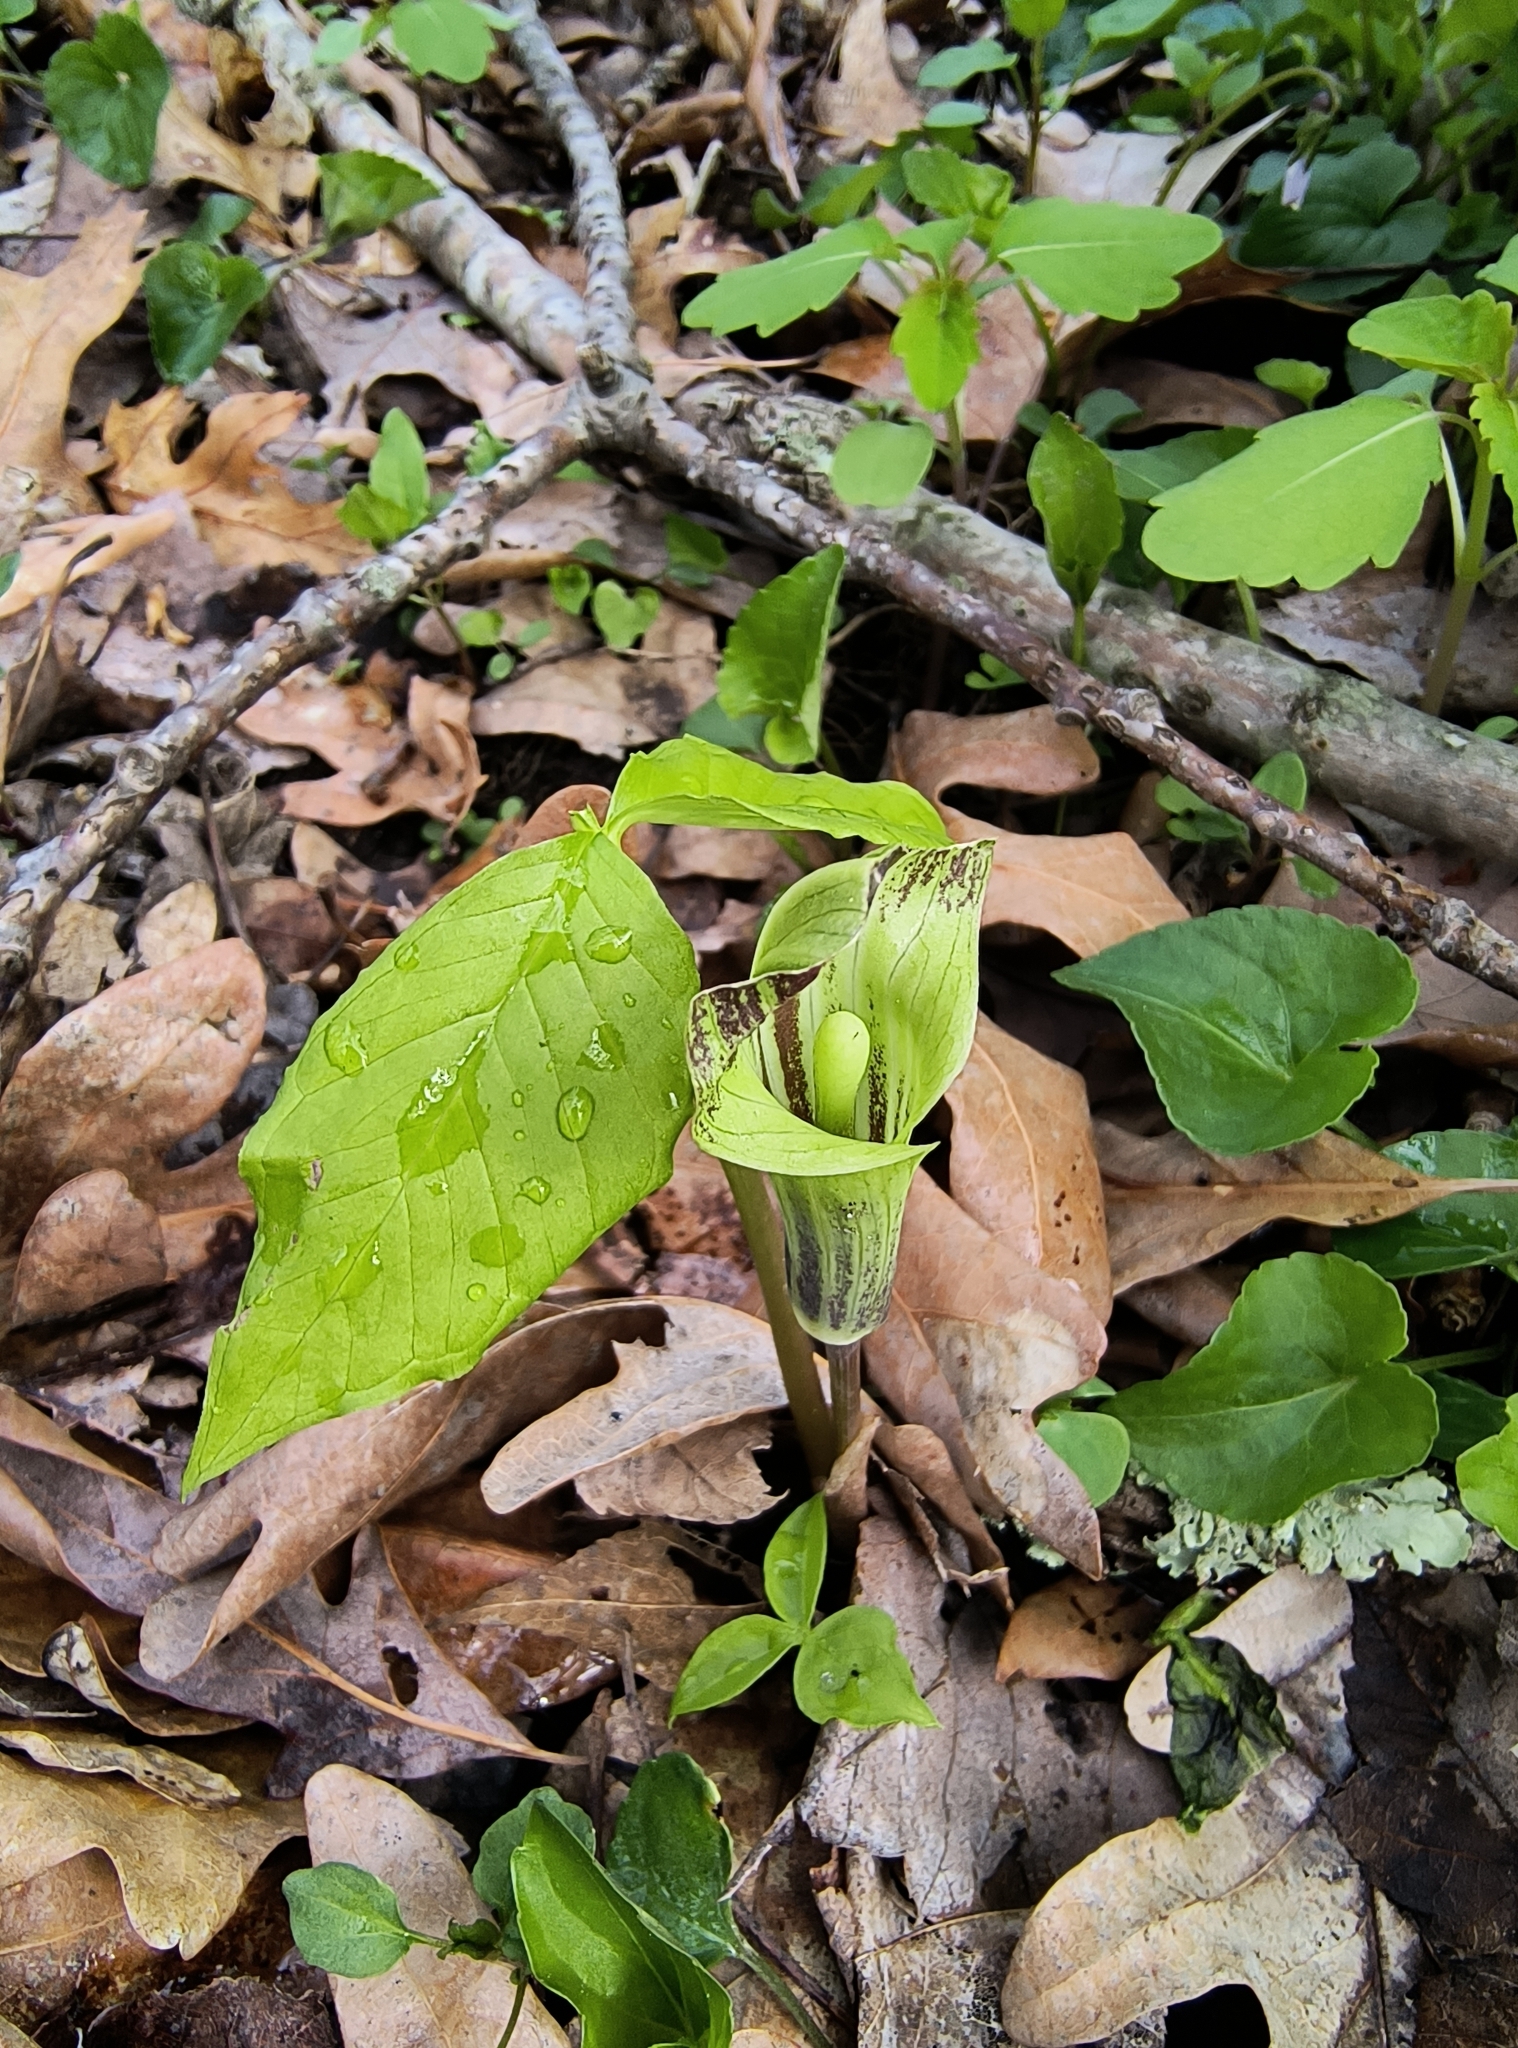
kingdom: Plantae
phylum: Tracheophyta
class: Liliopsida
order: Alismatales
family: Araceae
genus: Arisaema
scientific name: Arisaema triphyllum
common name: Jack-in-the-pulpit
